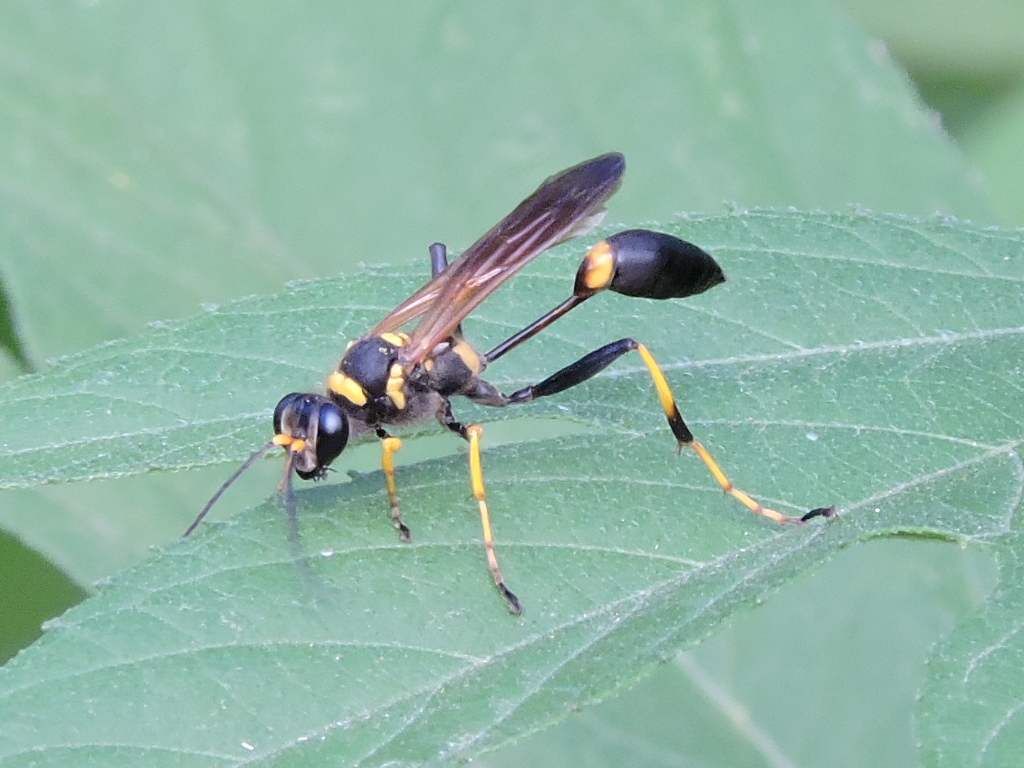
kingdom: Animalia
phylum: Arthropoda
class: Insecta
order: Hymenoptera
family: Sphecidae
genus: Sceliphron
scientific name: Sceliphron caementarium
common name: Mud dauber
